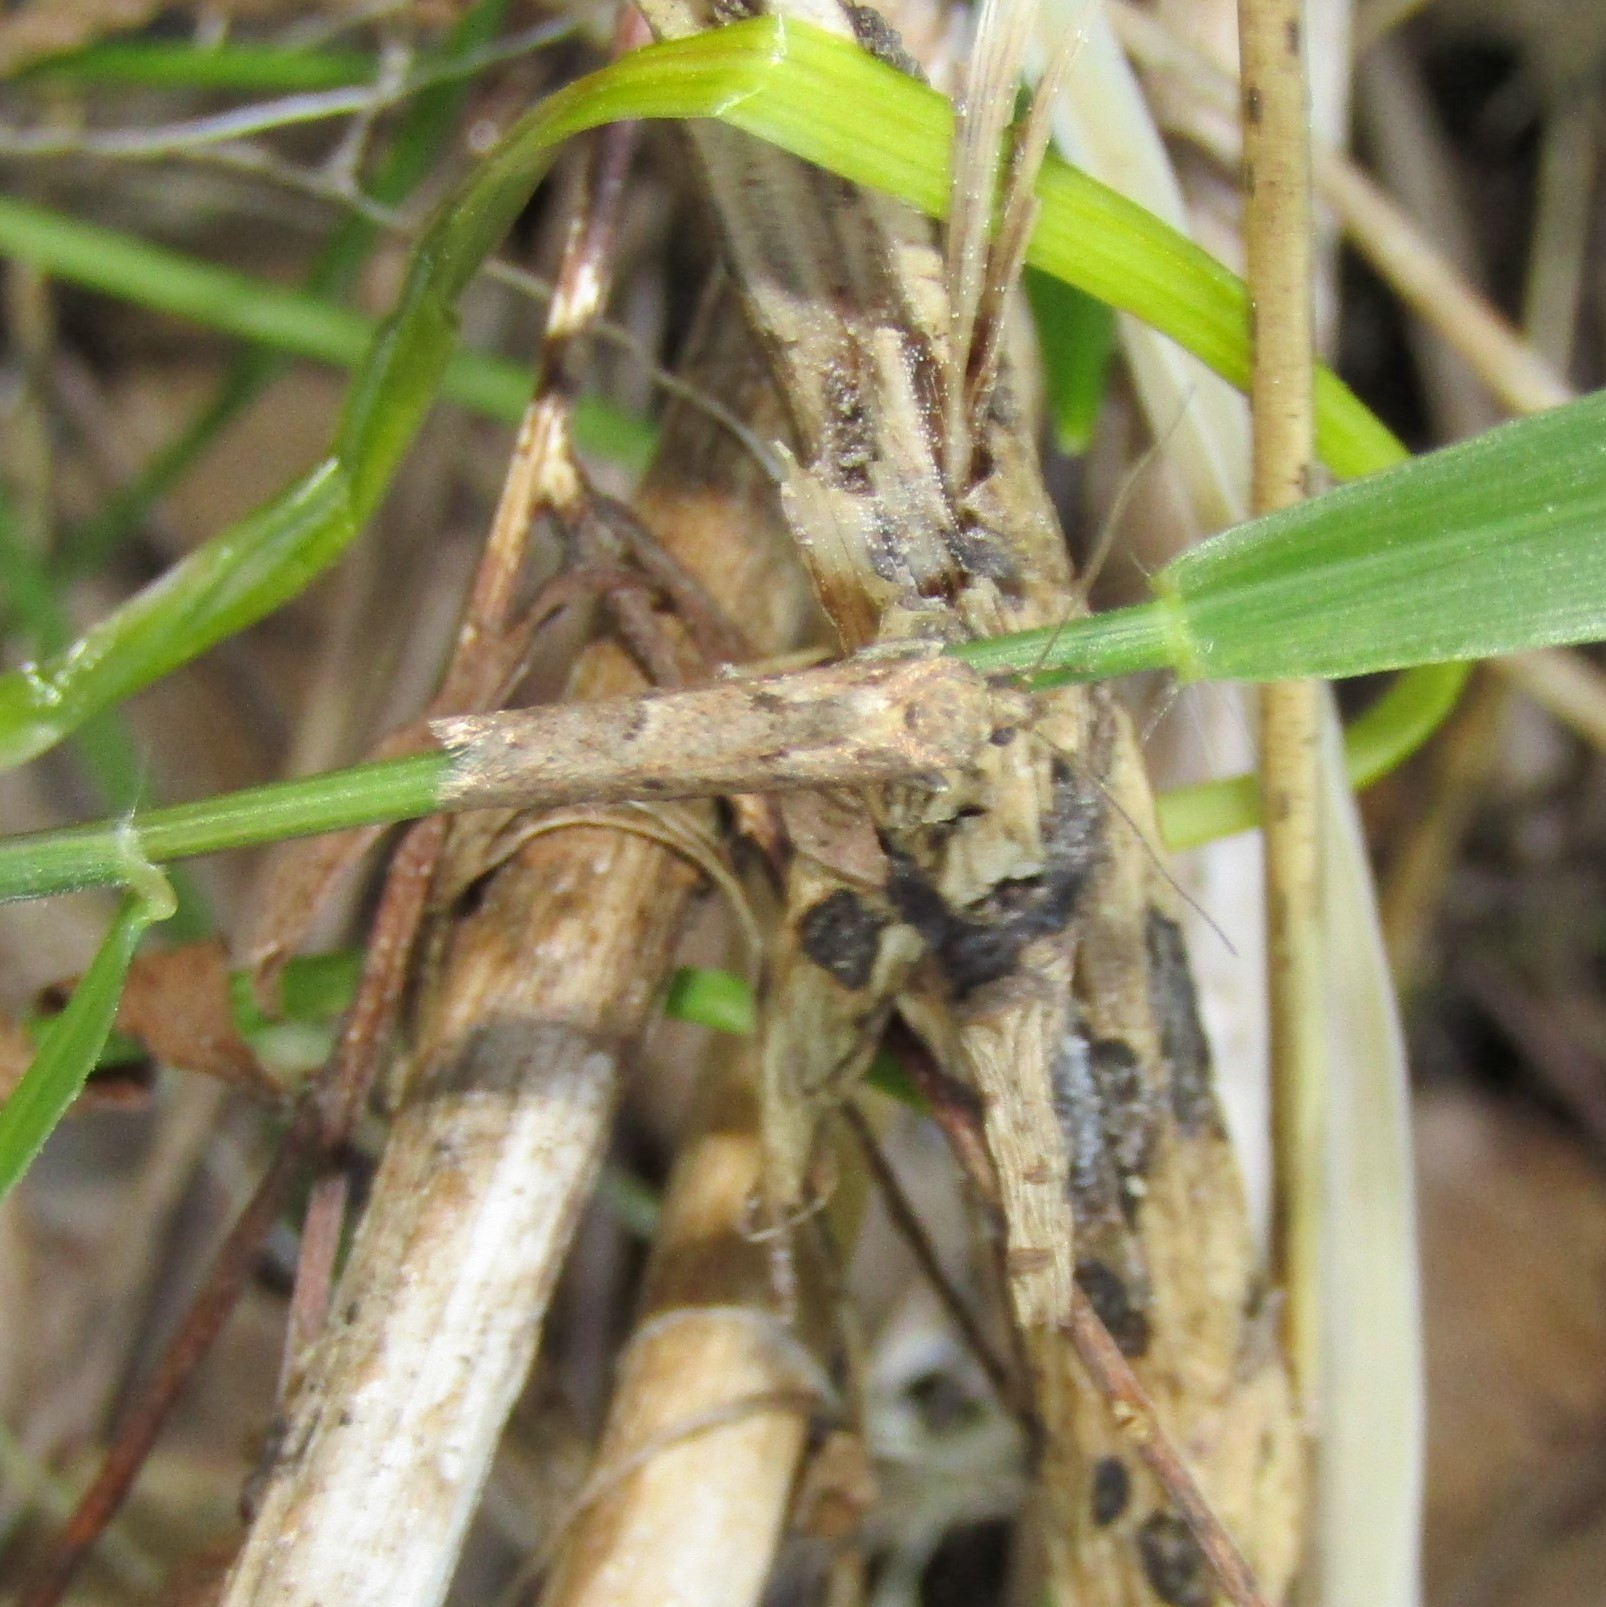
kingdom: Animalia
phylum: Arthropoda
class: Insecta
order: Lepidoptera
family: Oecophoridae
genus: Chersadaula
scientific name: Chersadaula ochrogastra
